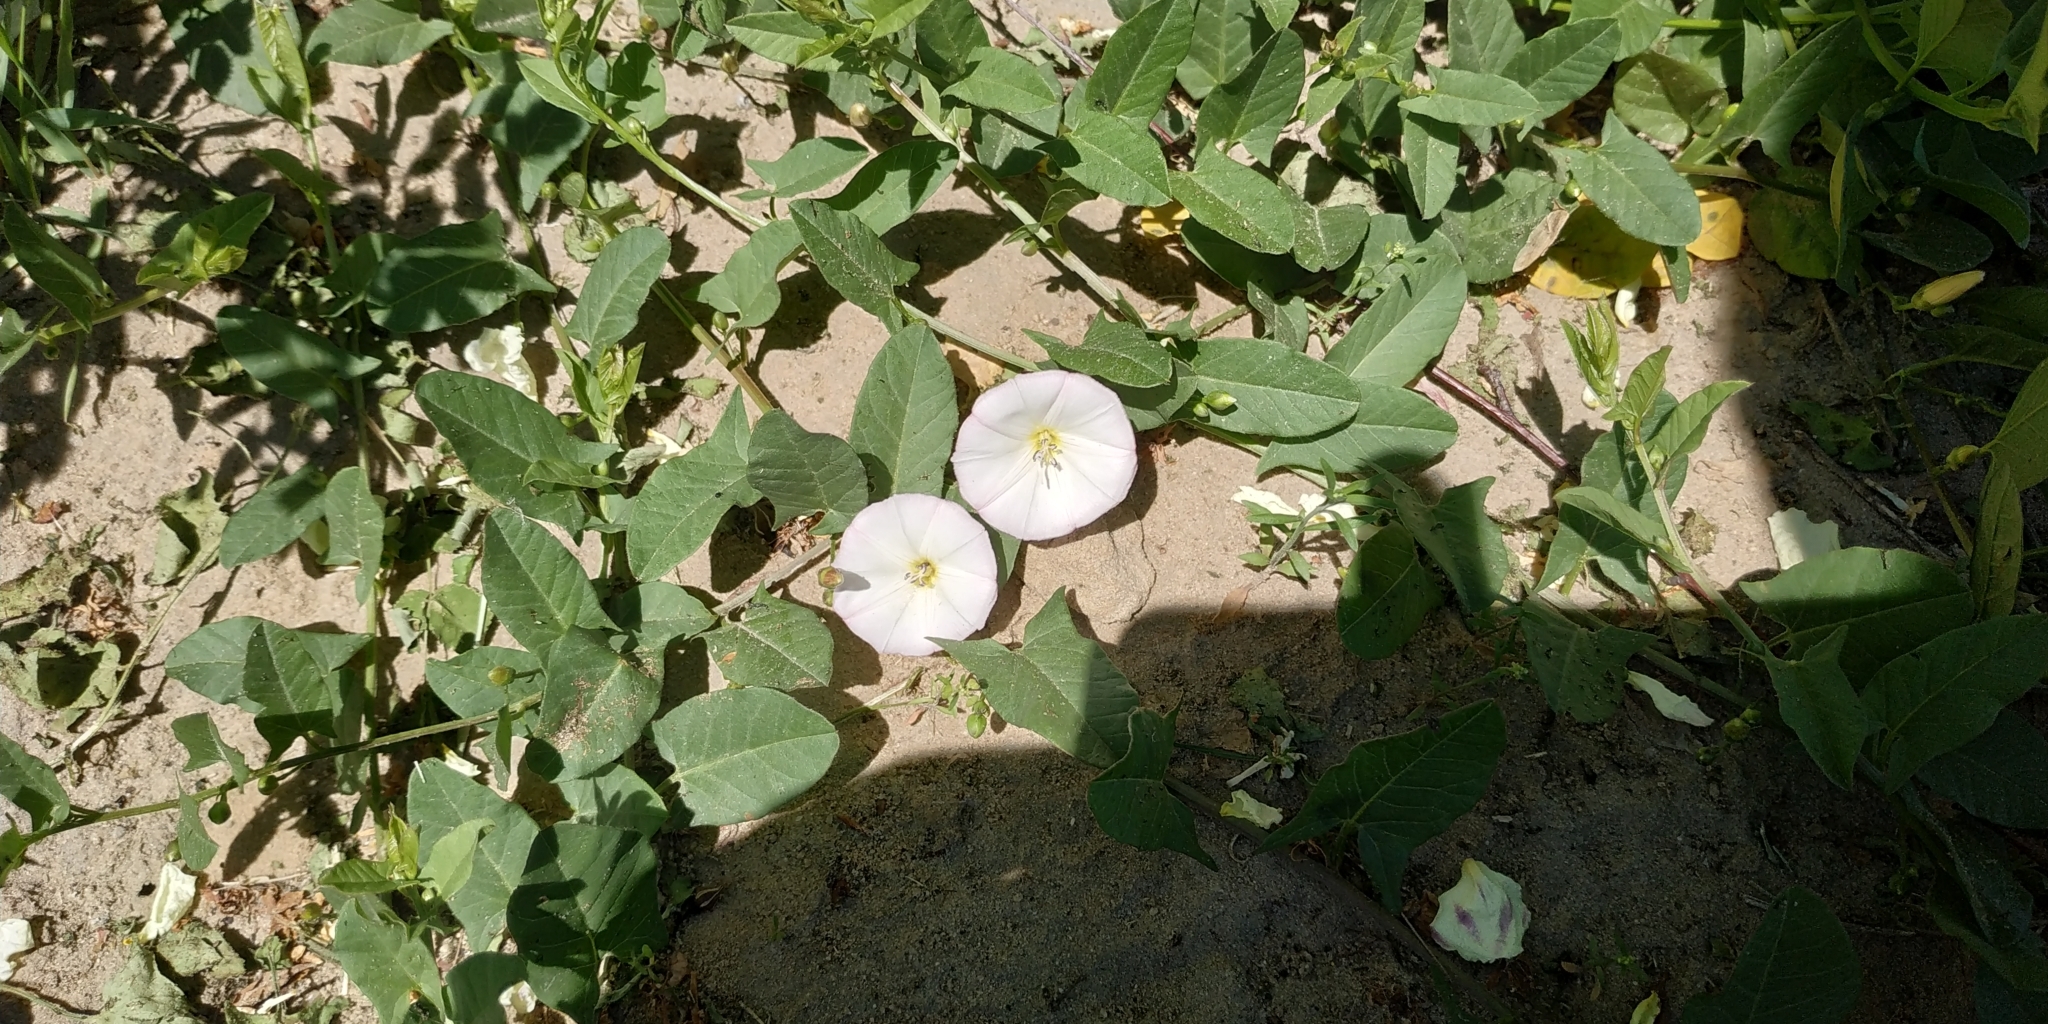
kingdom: Plantae
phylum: Tracheophyta
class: Magnoliopsida
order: Solanales
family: Convolvulaceae
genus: Convolvulus
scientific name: Convolvulus arvensis
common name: Field bindweed
